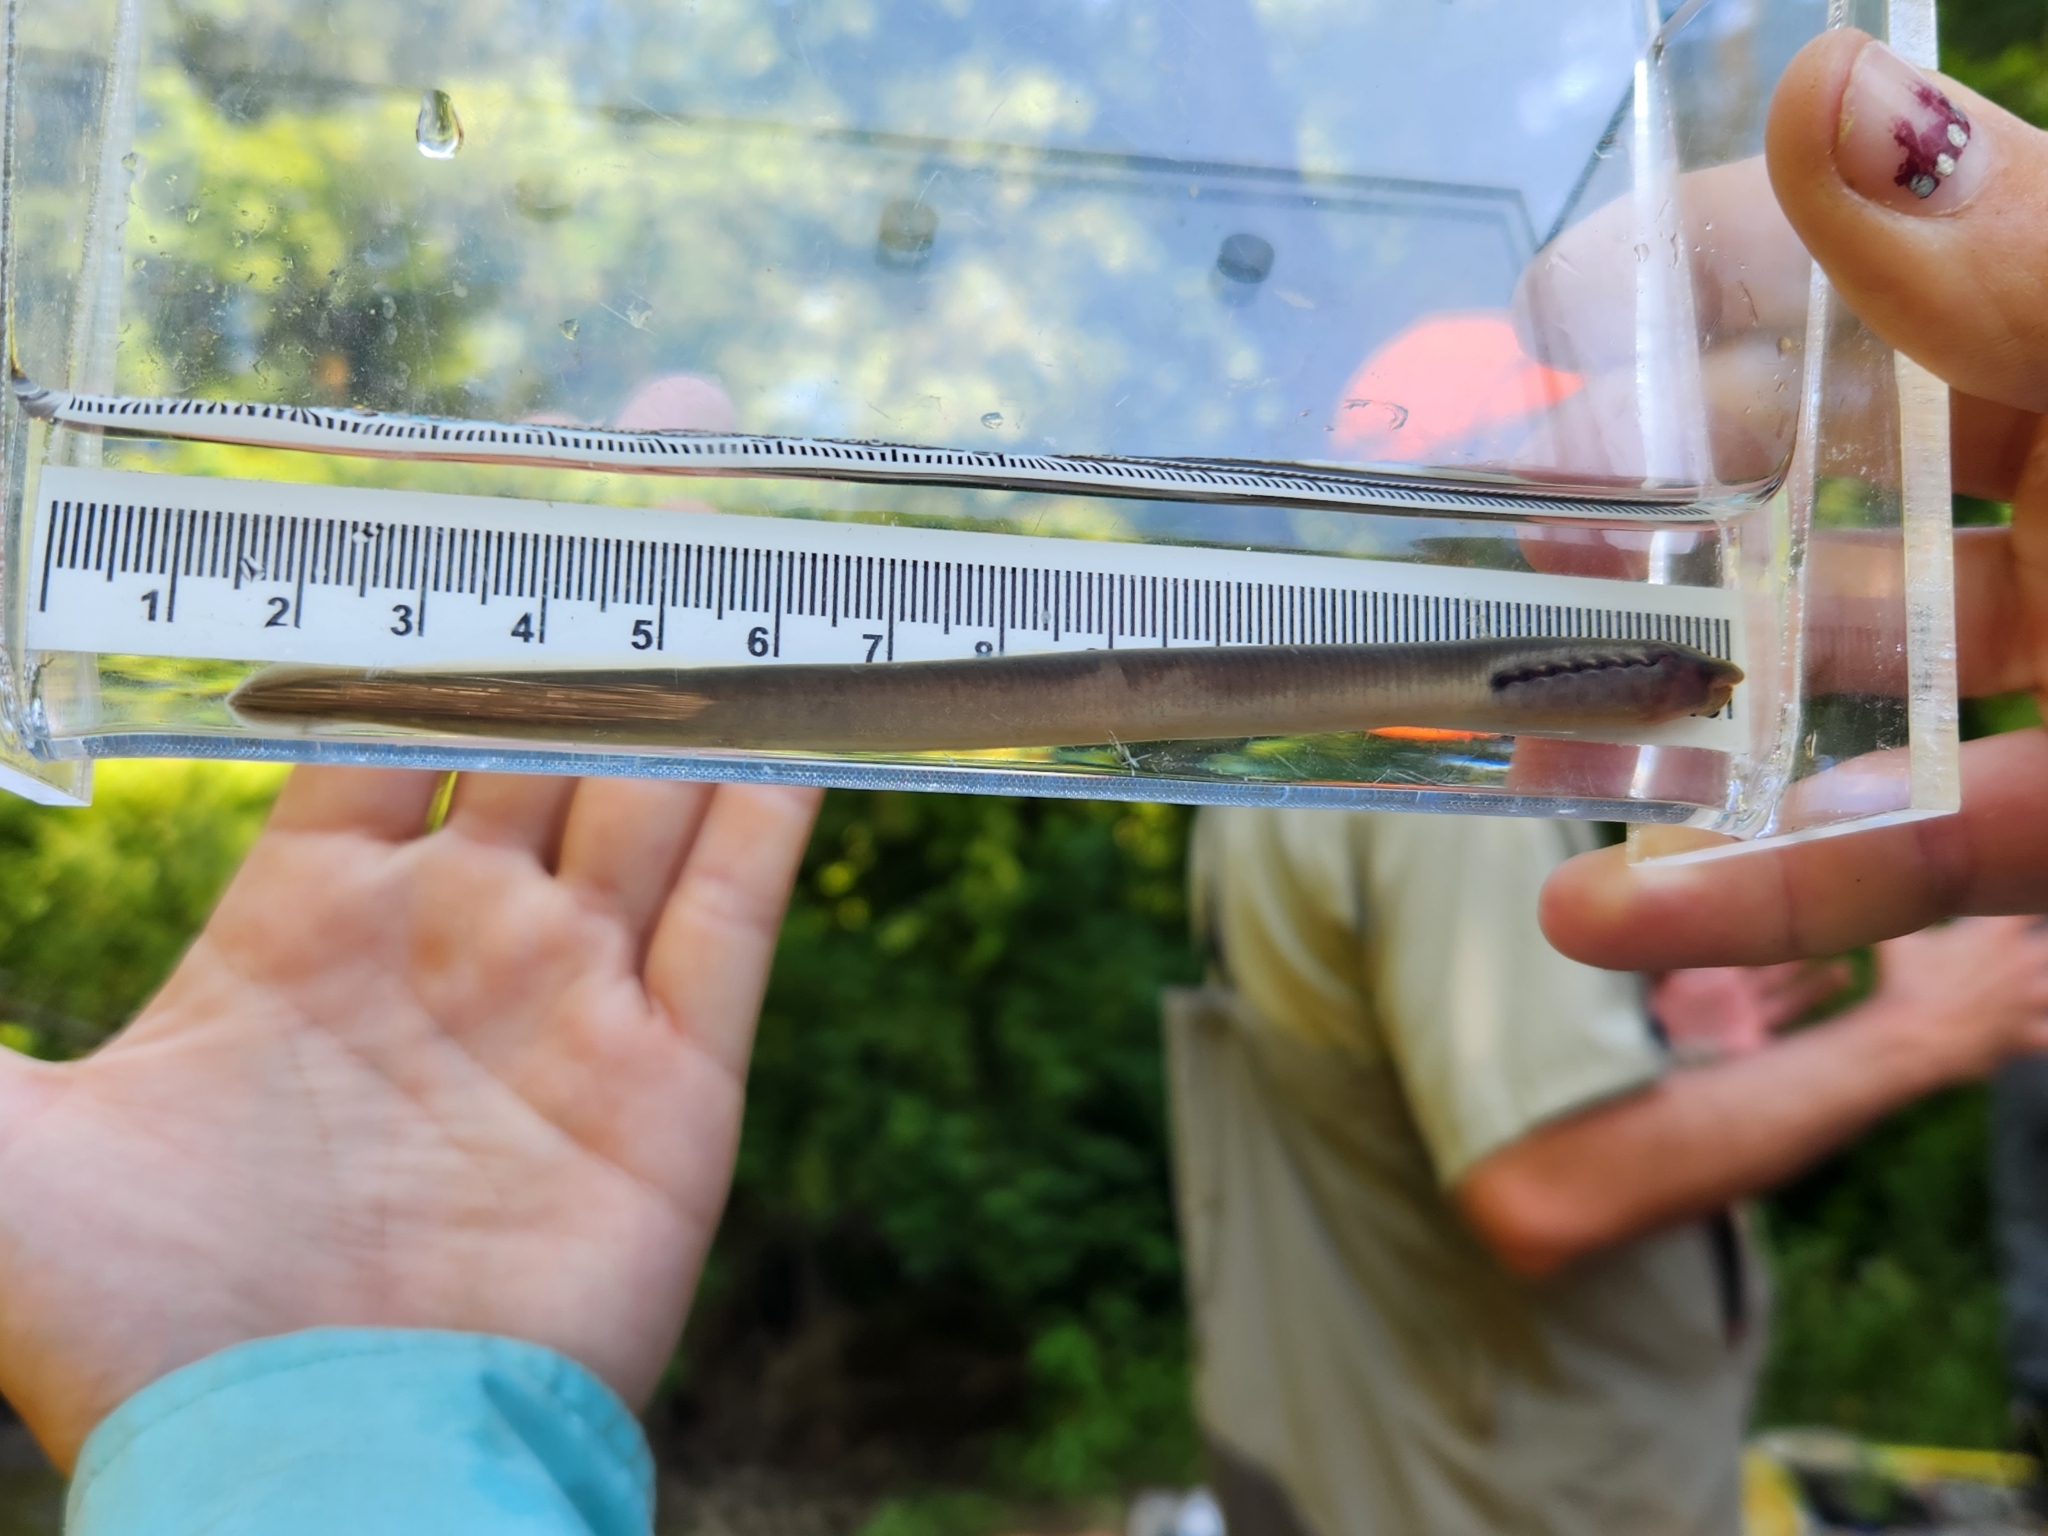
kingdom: Animalia
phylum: Chordata
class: Petromyzonti
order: Petromyzontiformes
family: Petromyzontidae
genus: Entosphenus
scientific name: Entosphenus tridentatus
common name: Pacific lamprey
